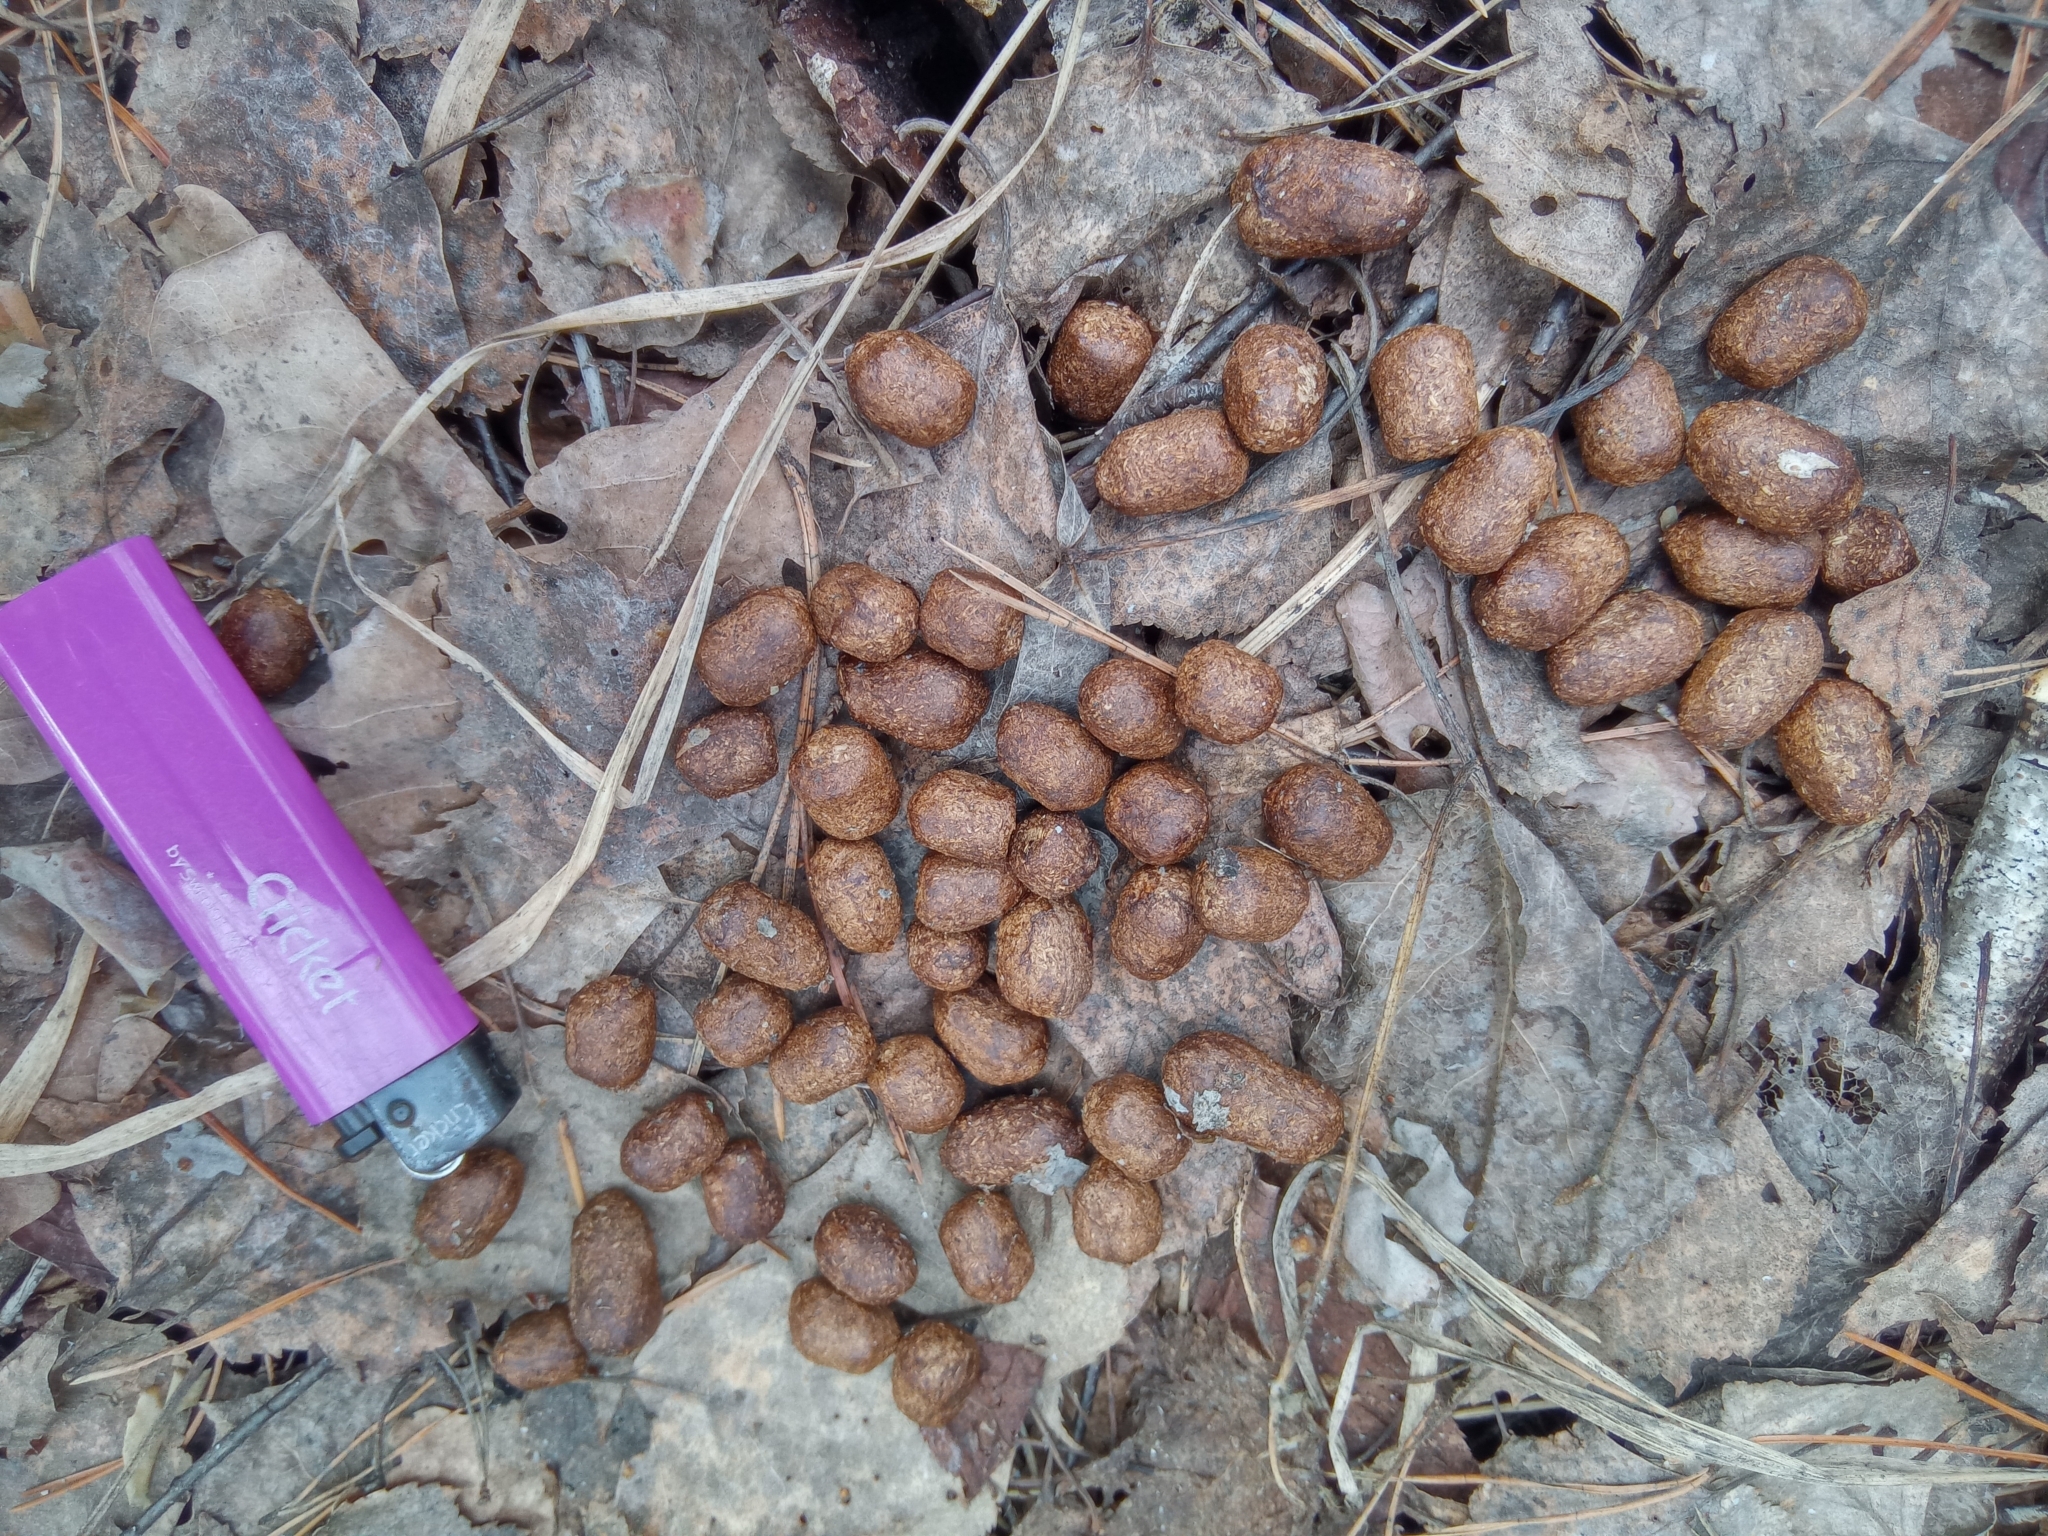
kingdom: Animalia
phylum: Chordata
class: Mammalia
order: Artiodactyla
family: Cervidae
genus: Capreolus
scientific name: Capreolus pygargus
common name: Siberian roe
